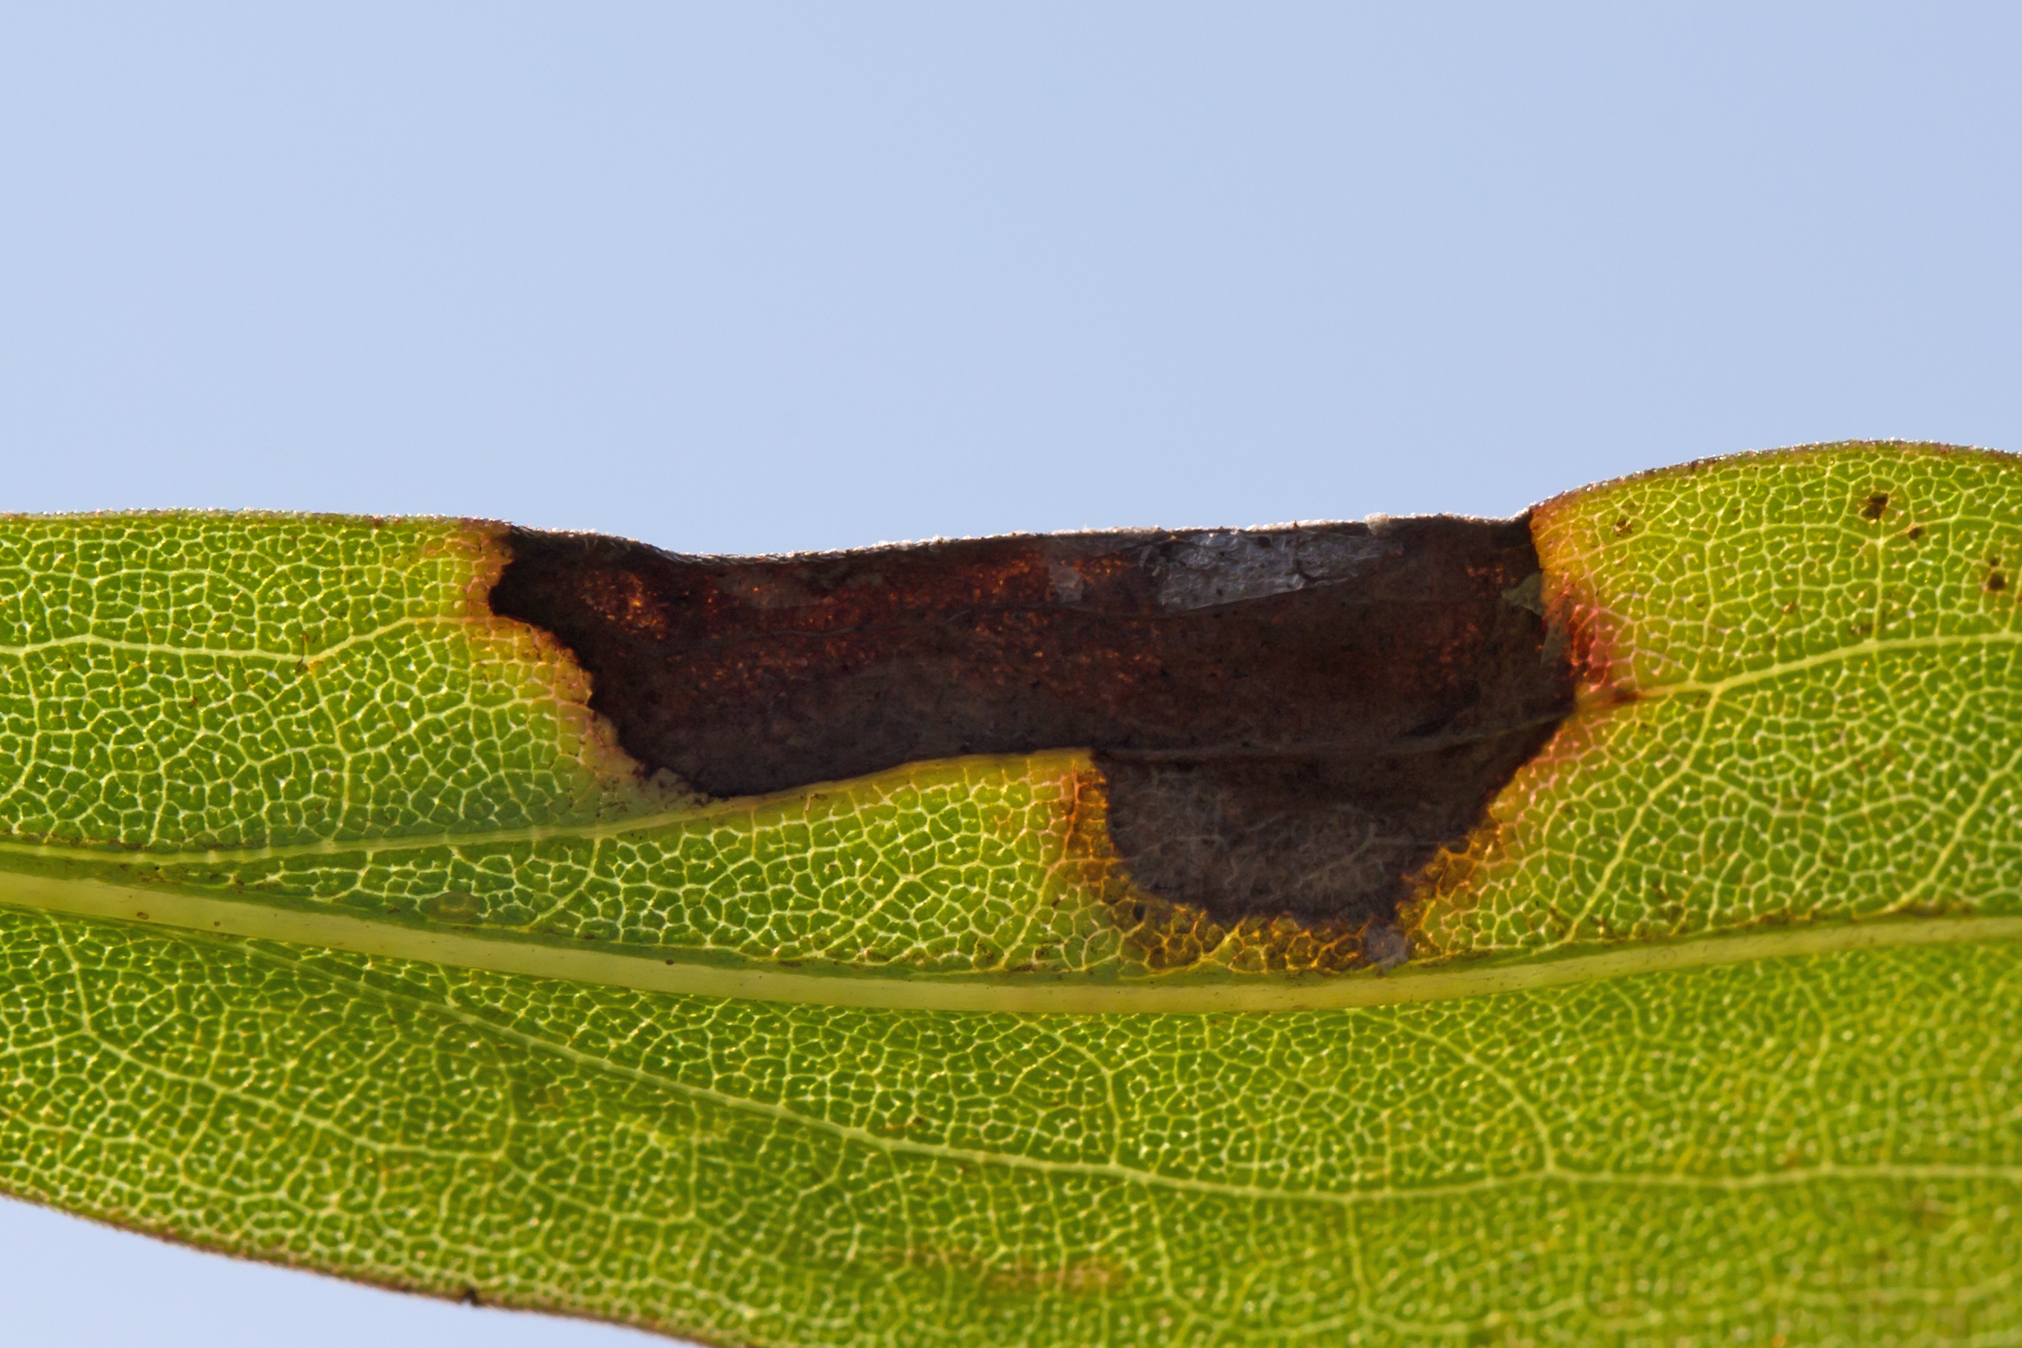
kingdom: Animalia
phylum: Arthropoda
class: Insecta
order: Diptera
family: Cecidomyiidae
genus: Asteromyia
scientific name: Asteromyia carbonifera
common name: Carbonifera goldenrod gall midge
